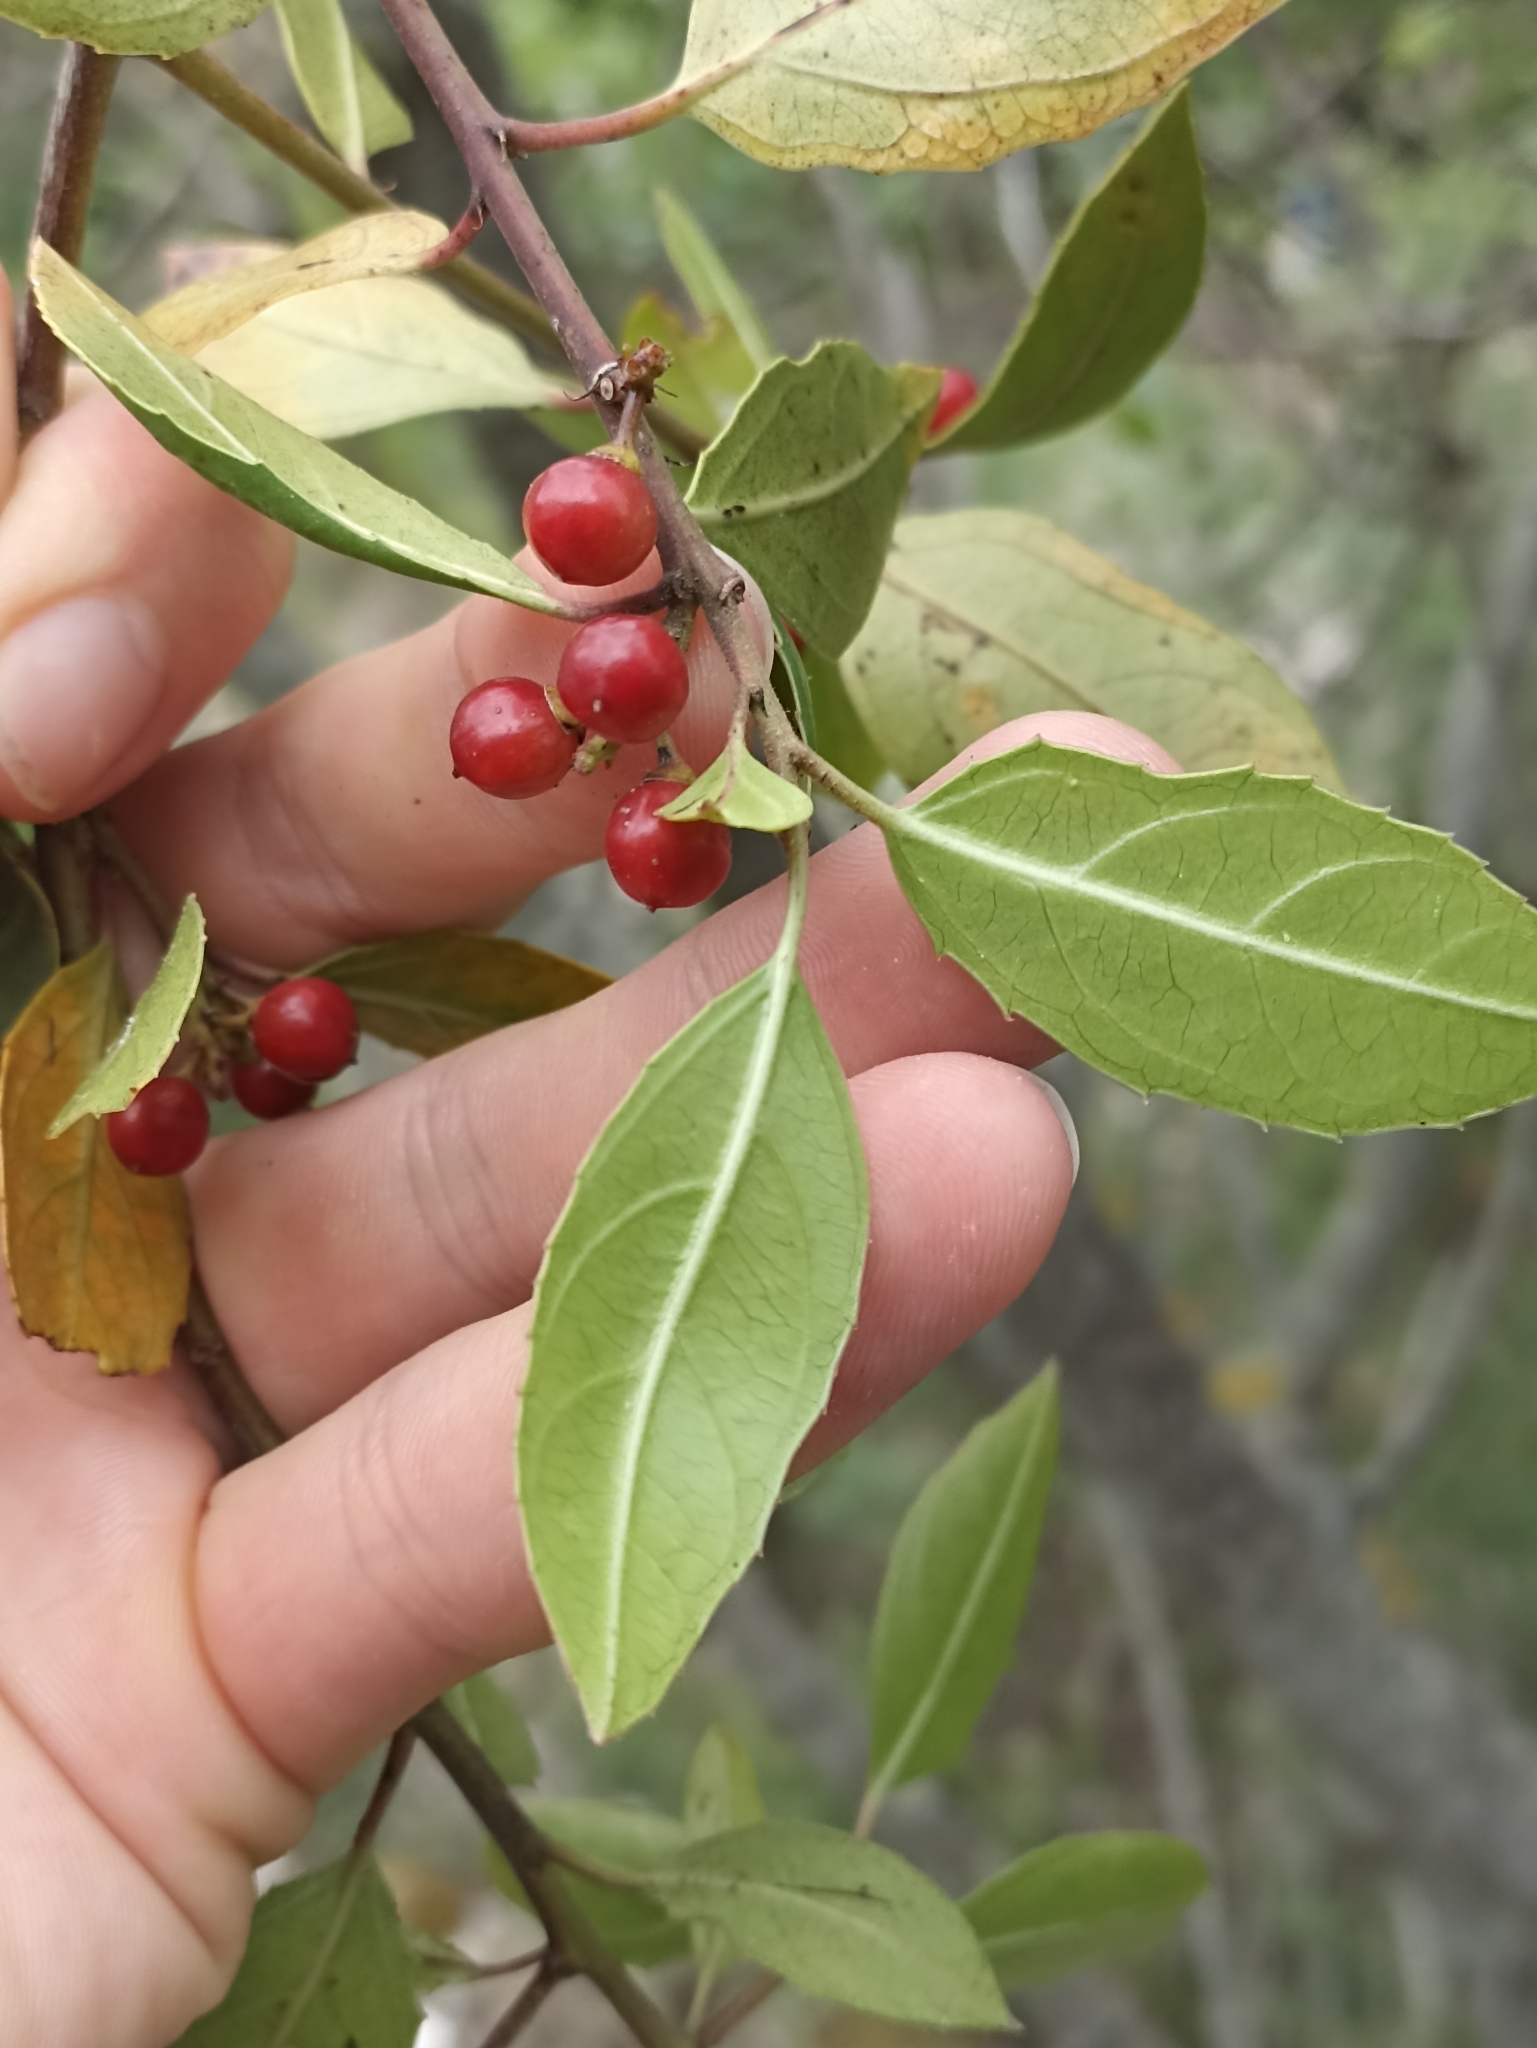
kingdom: Plantae
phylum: Tracheophyta
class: Magnoliopsida
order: Rosales
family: Rhamnaceae
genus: Rhamnus
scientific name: Rhamnus alaternus
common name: Mediterranean buckthorn
